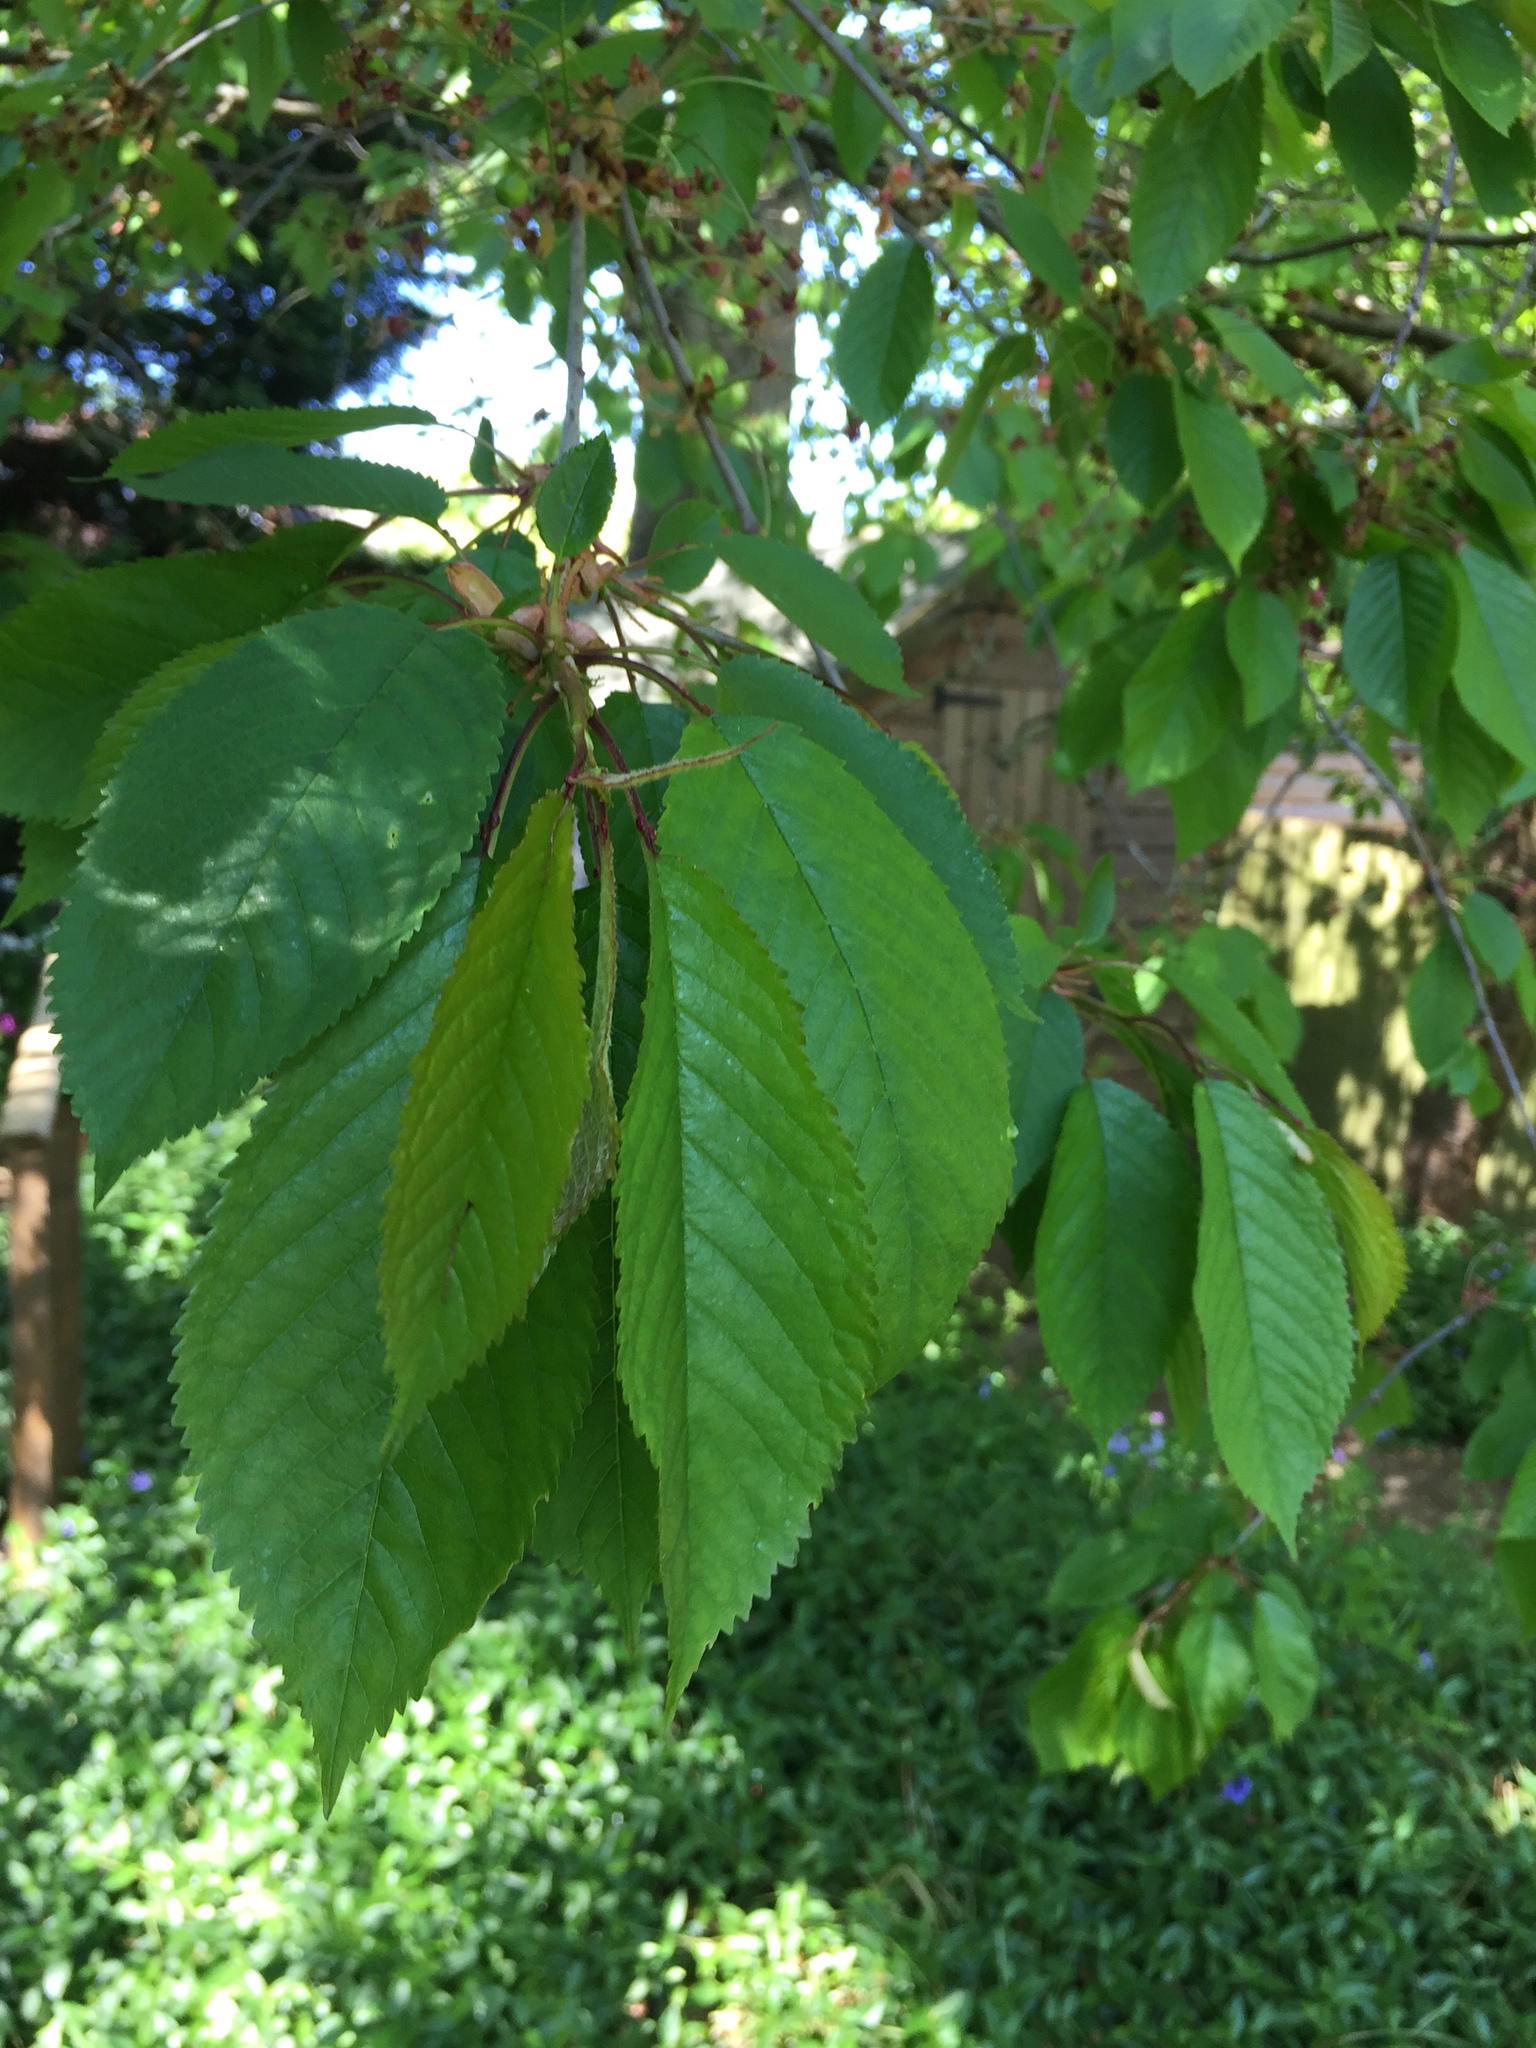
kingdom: Plantae
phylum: Tracheophyta
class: Magnoliopsida
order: Rosales
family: Rosaceae
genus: Prunus
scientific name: Prunus avium
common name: Sweet cherry
